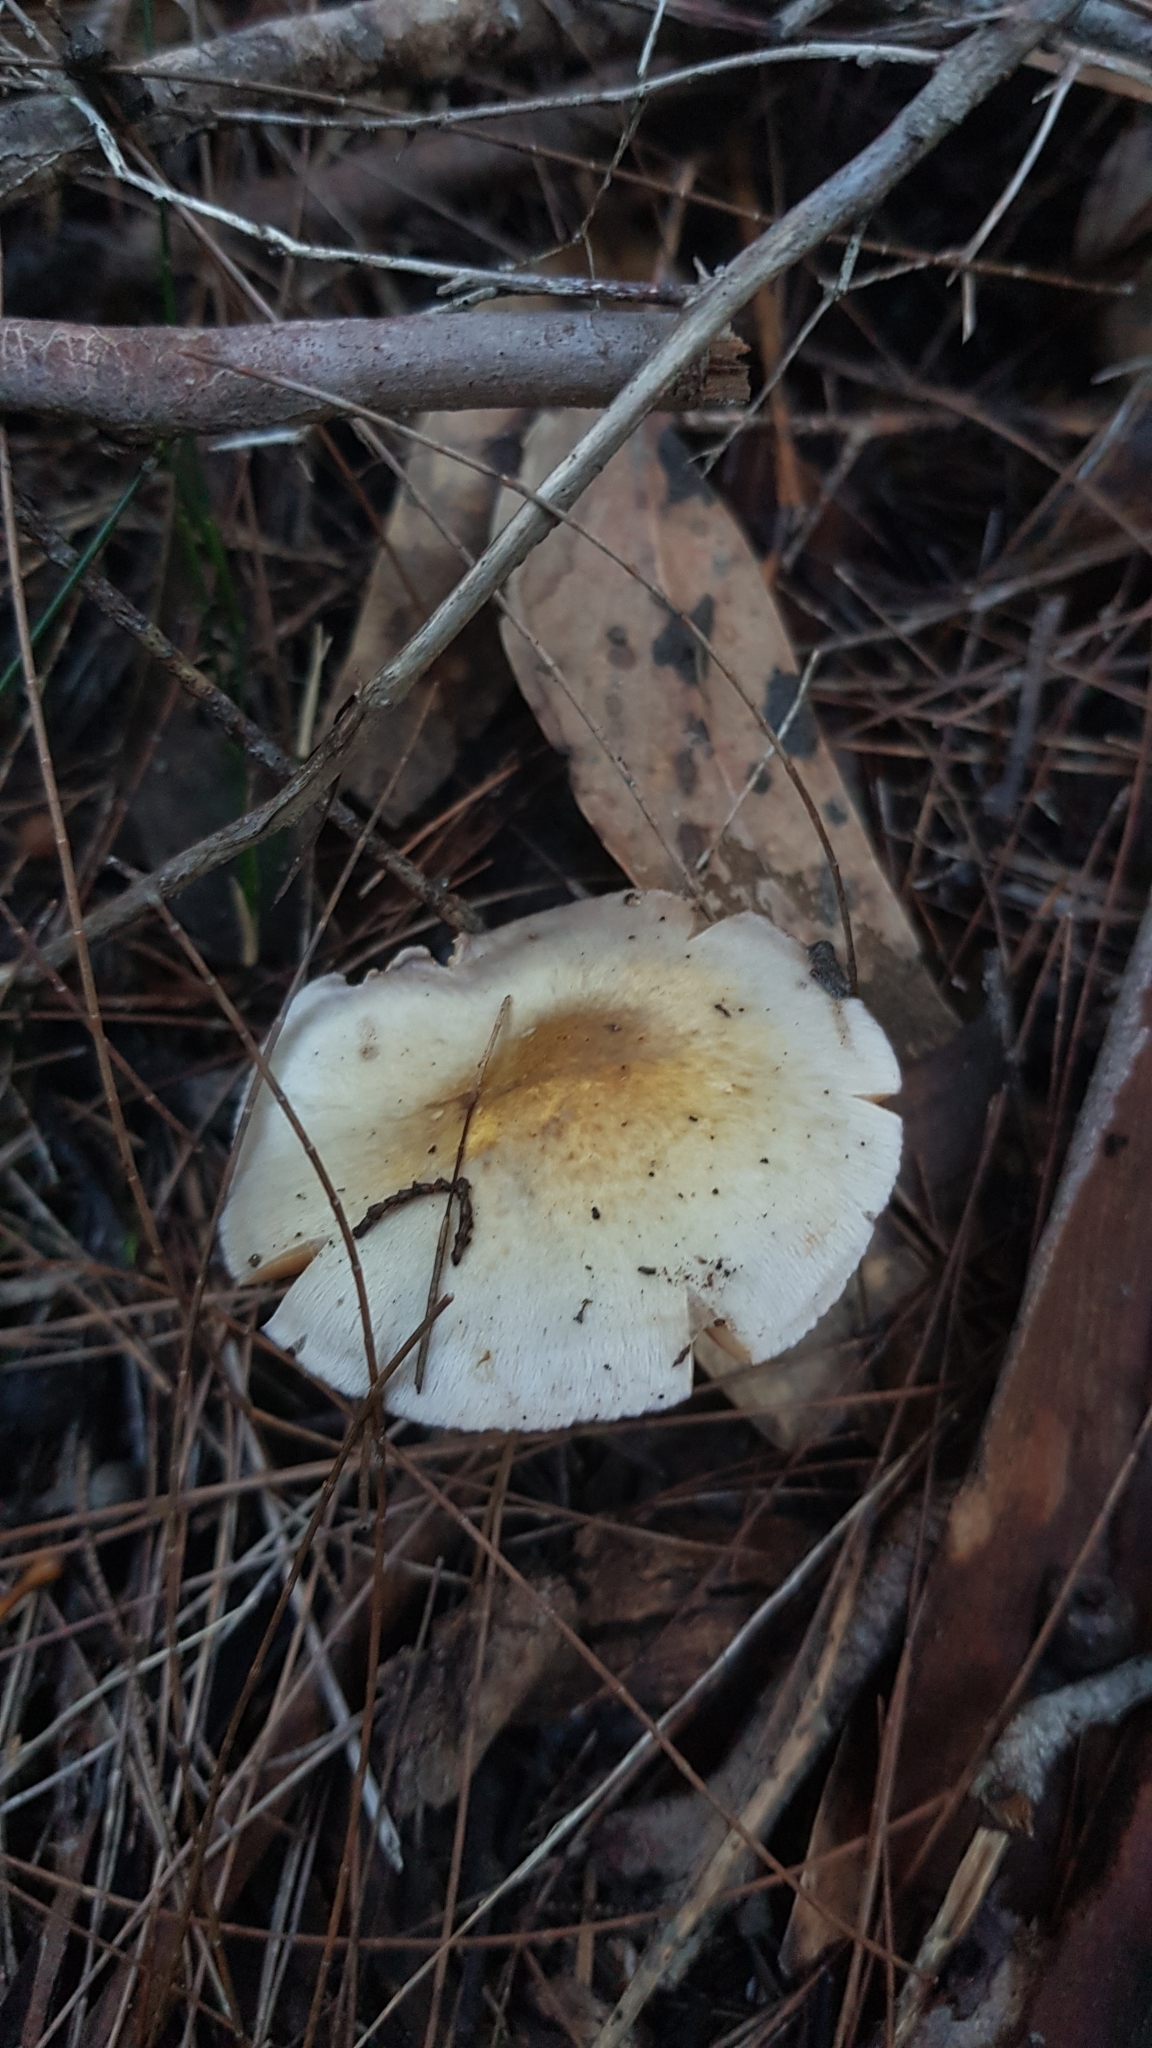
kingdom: Fungi
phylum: Basidiomycota
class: Agaricomycetes
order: Agaricales
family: Cortinariaceae
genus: Cortinarius
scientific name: Cortinarius rotundisporus
